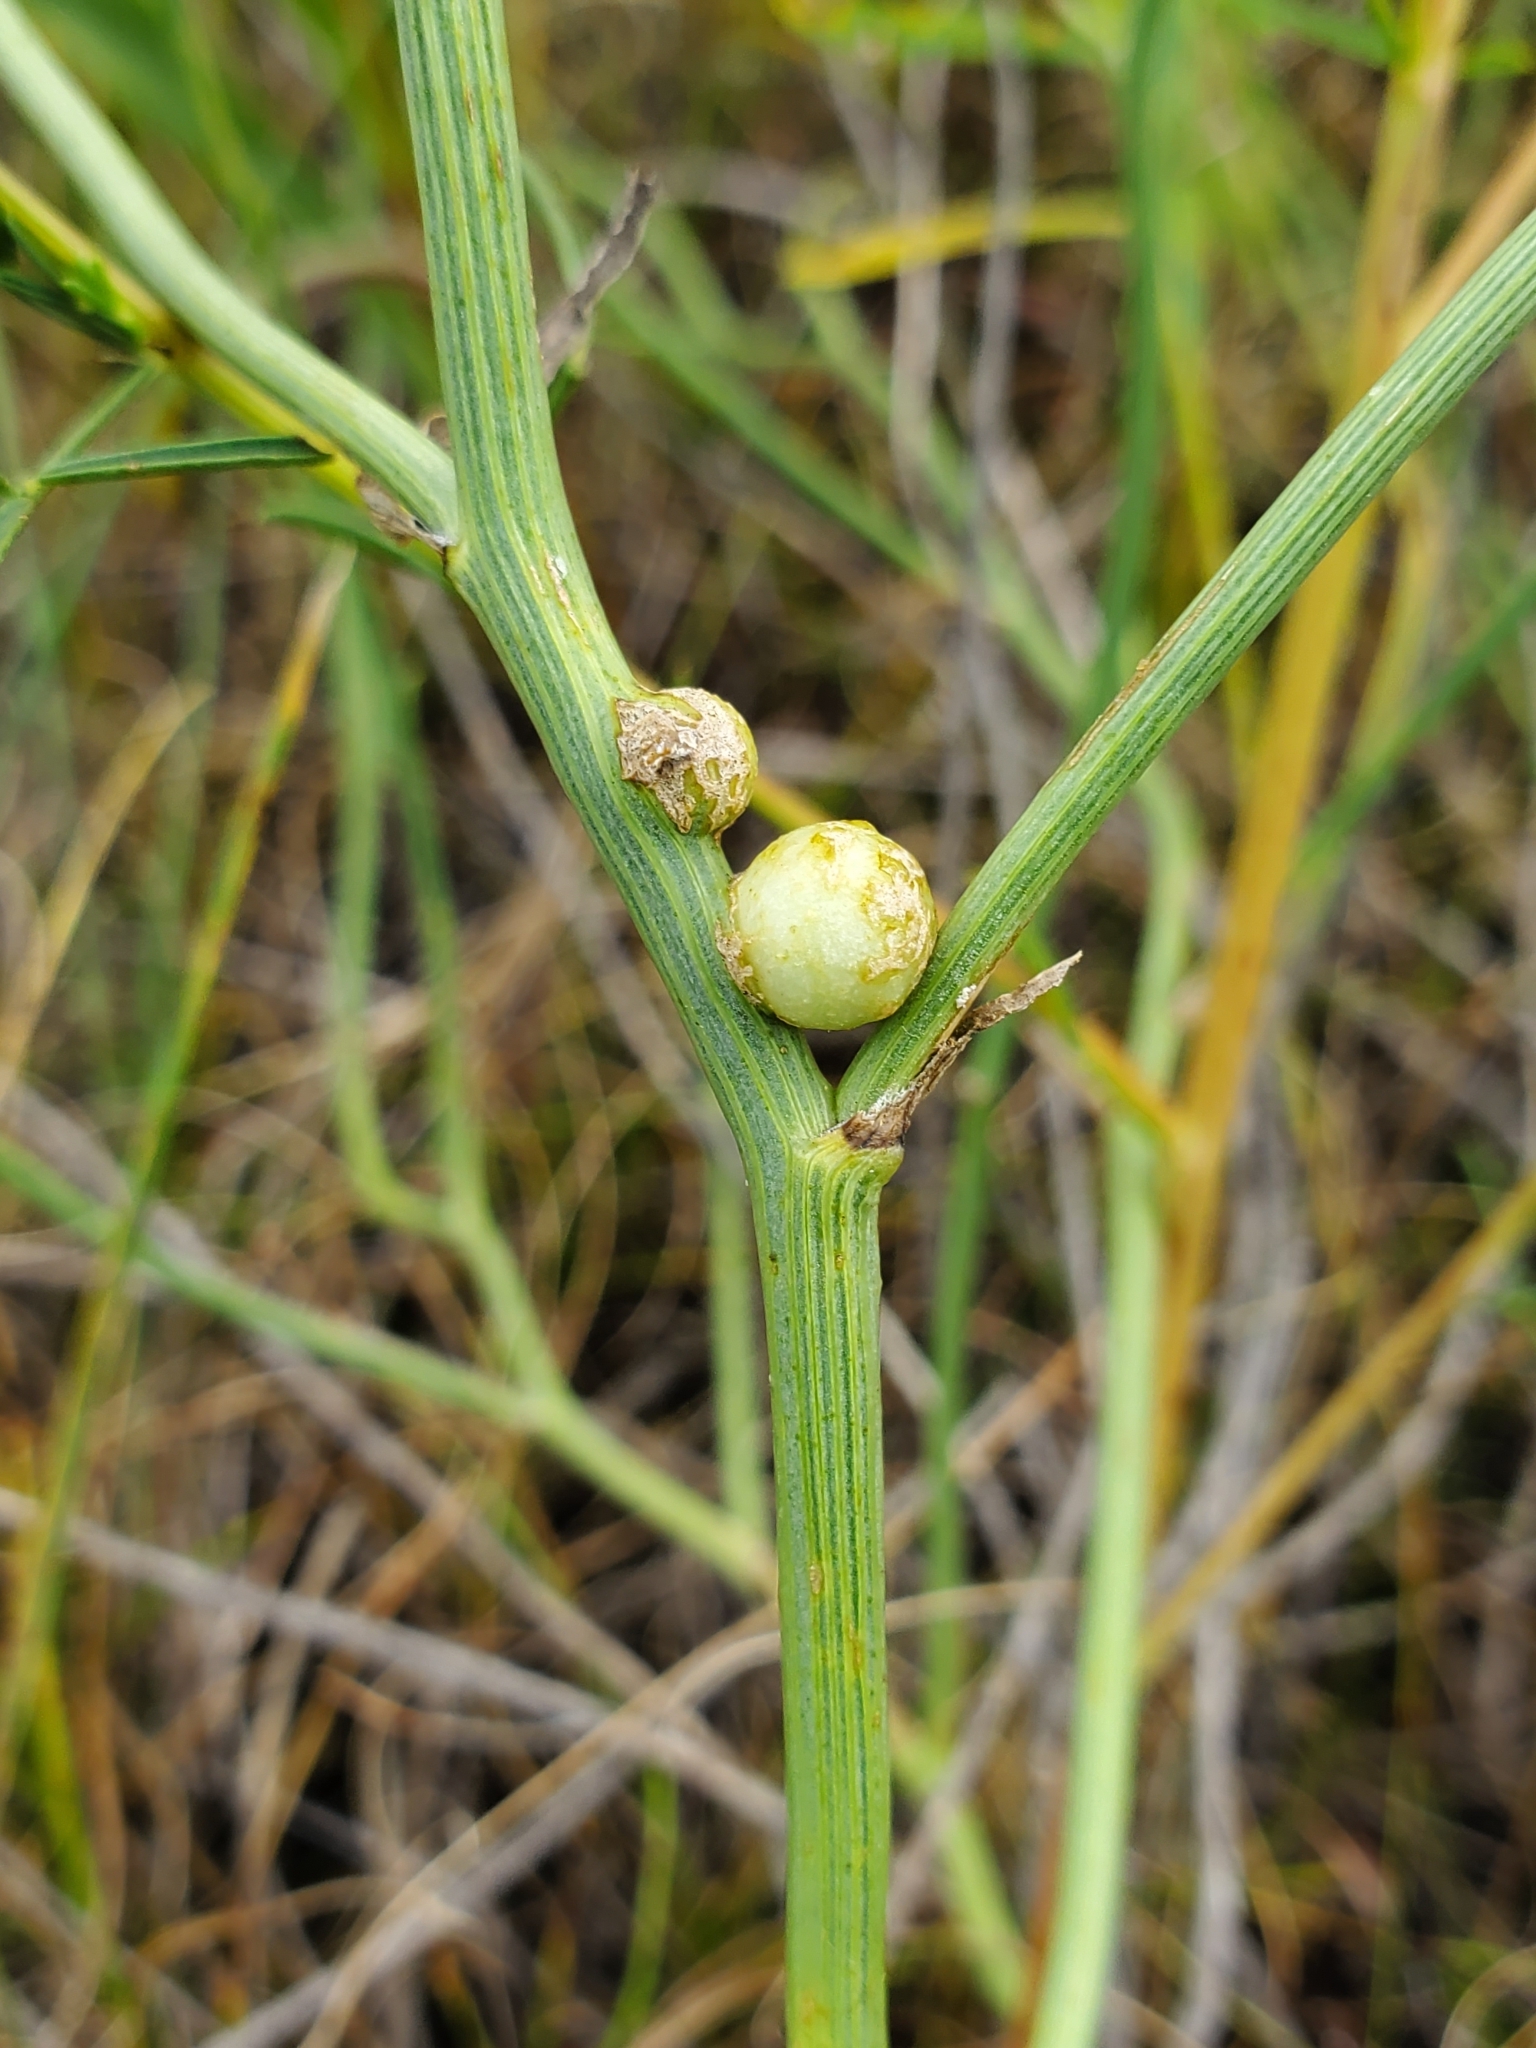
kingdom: Animalia
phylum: Arthropoda
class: Insecta
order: Hymenoptera
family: Cynipidae
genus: Antistrophus
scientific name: Antistrophus
